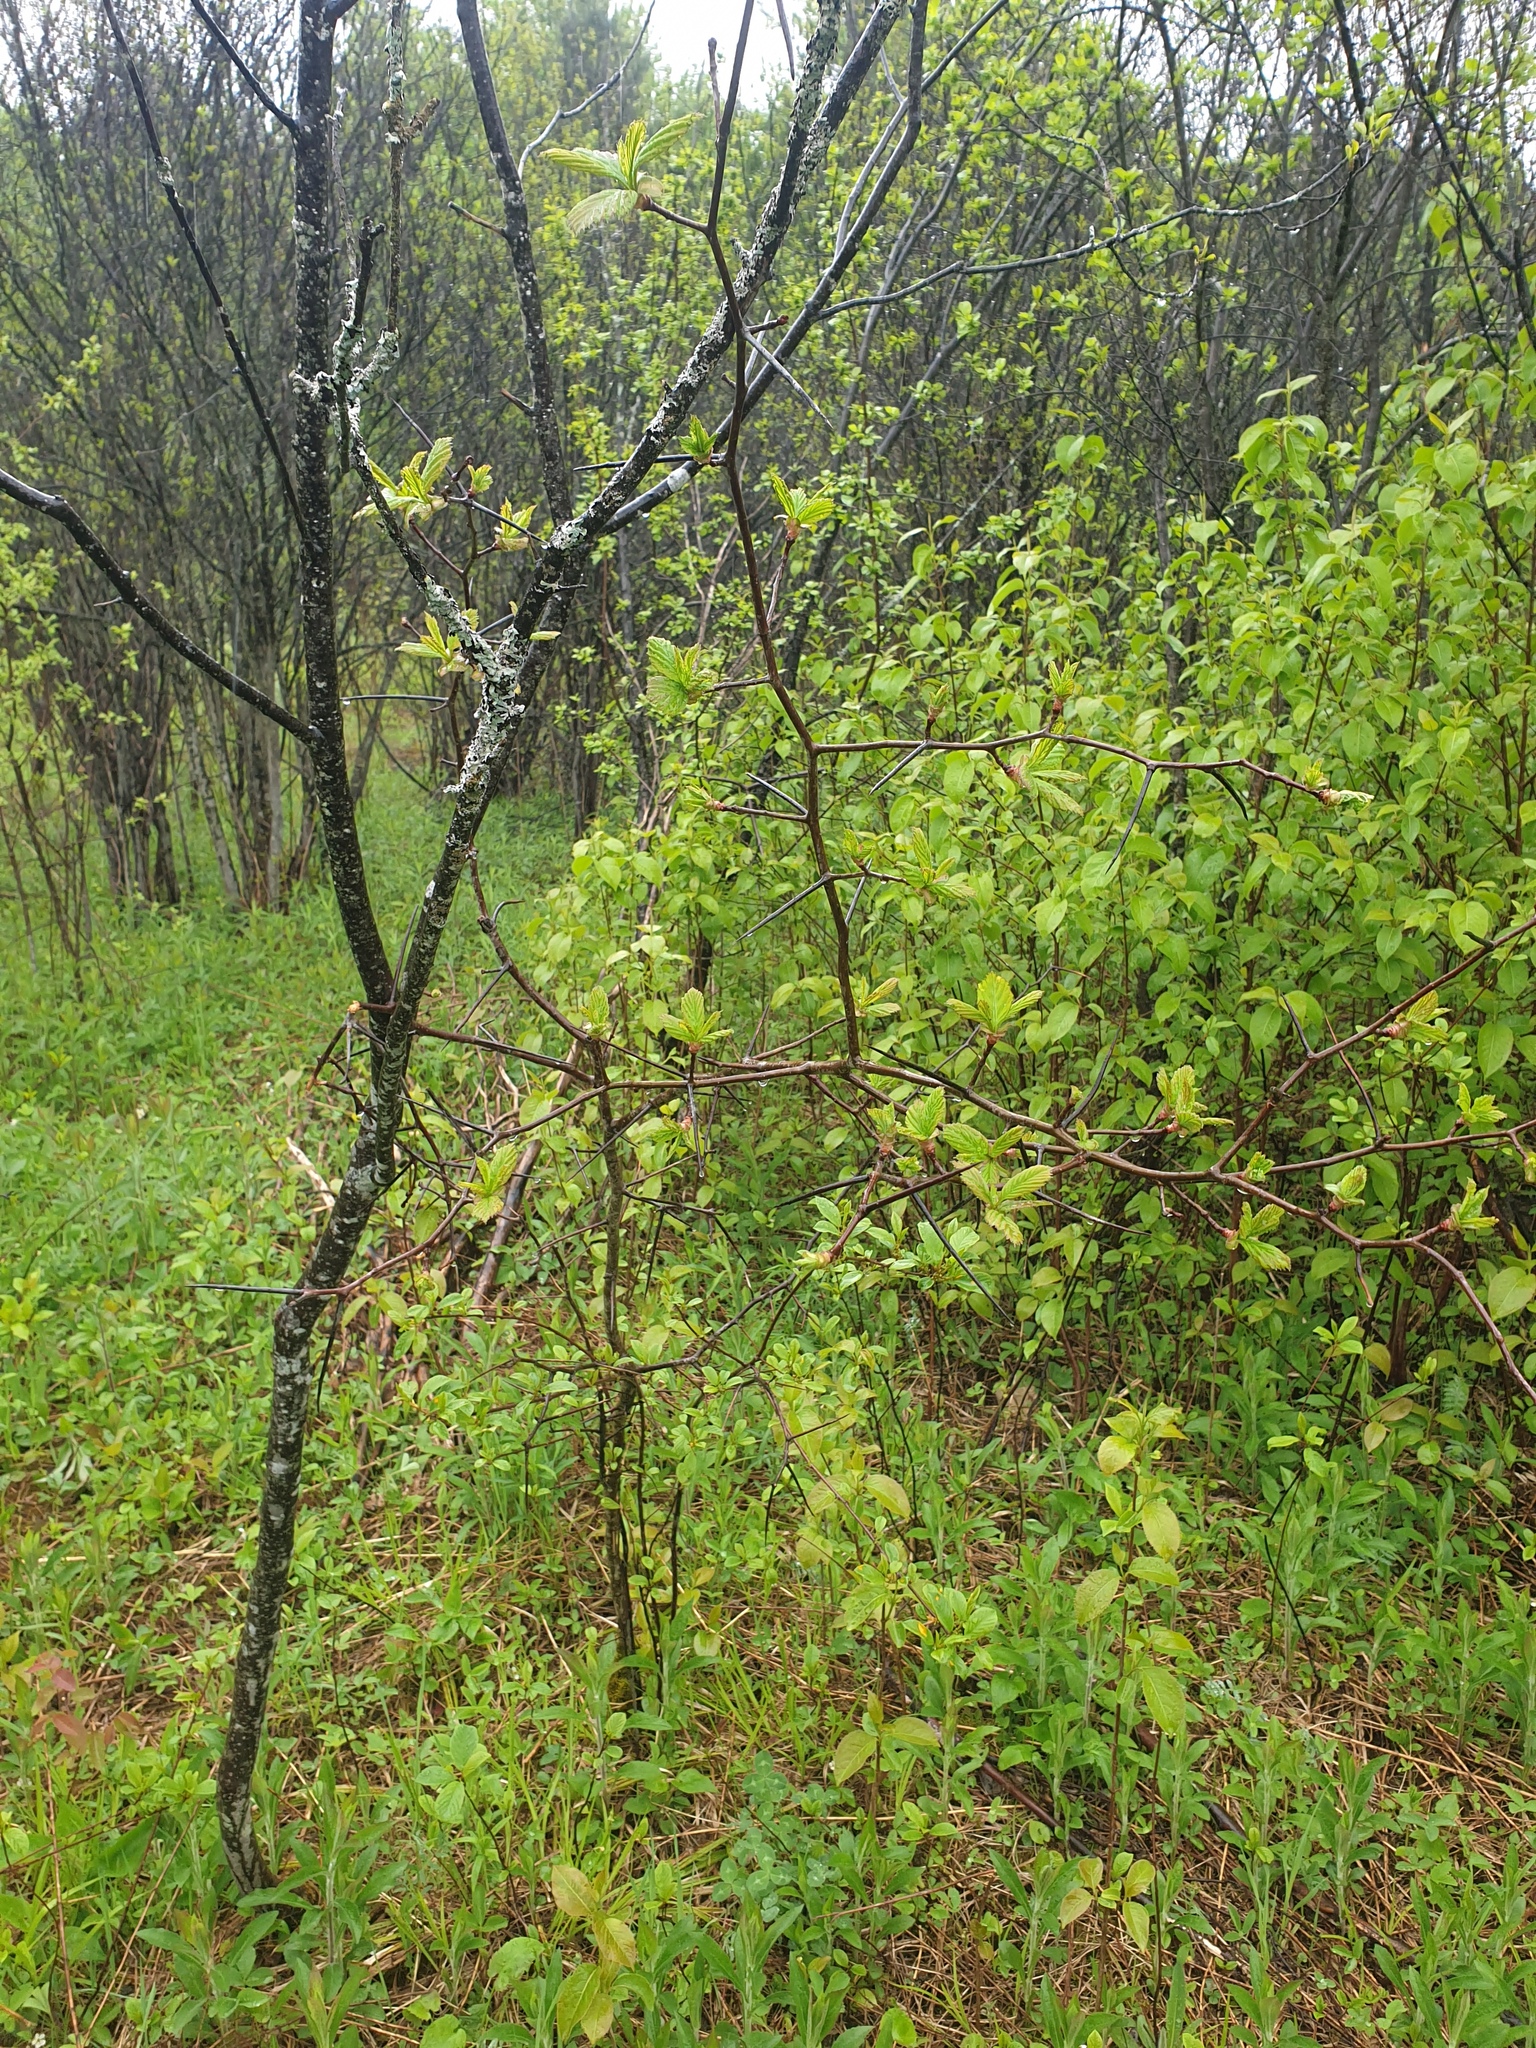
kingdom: Plantae
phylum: Tracheophyta
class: Magnoliopsida
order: Rosales
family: Rosaceae
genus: Crataegus
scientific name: Crataegus macracantha
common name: Large-thorn hawthorn
